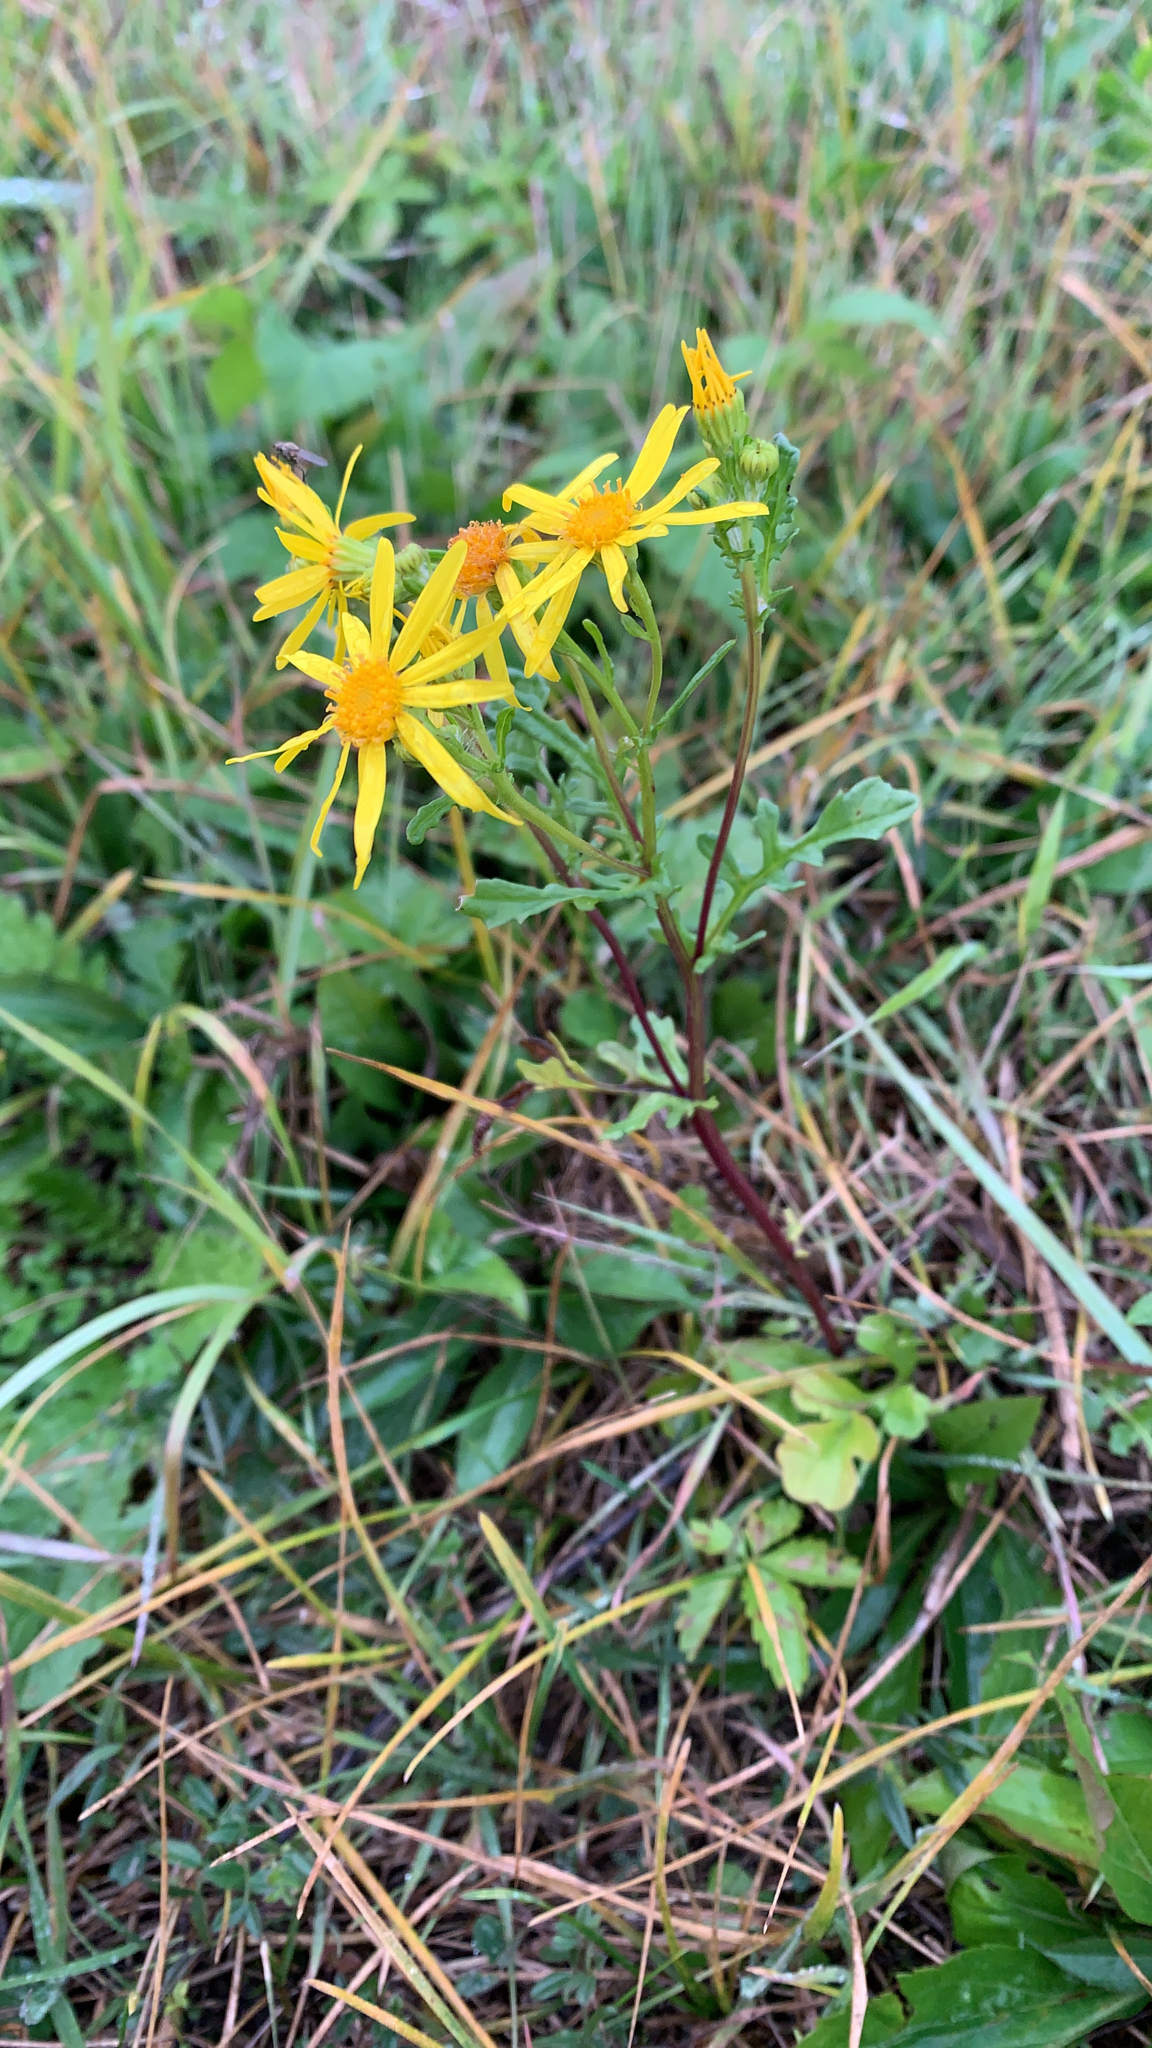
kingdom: Plantae
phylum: Tracheophyta
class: Magnoliopsida
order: Asterales
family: Asteraceae
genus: Jacobaea
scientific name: Jacobaea vulgaris
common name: Stinking willie
